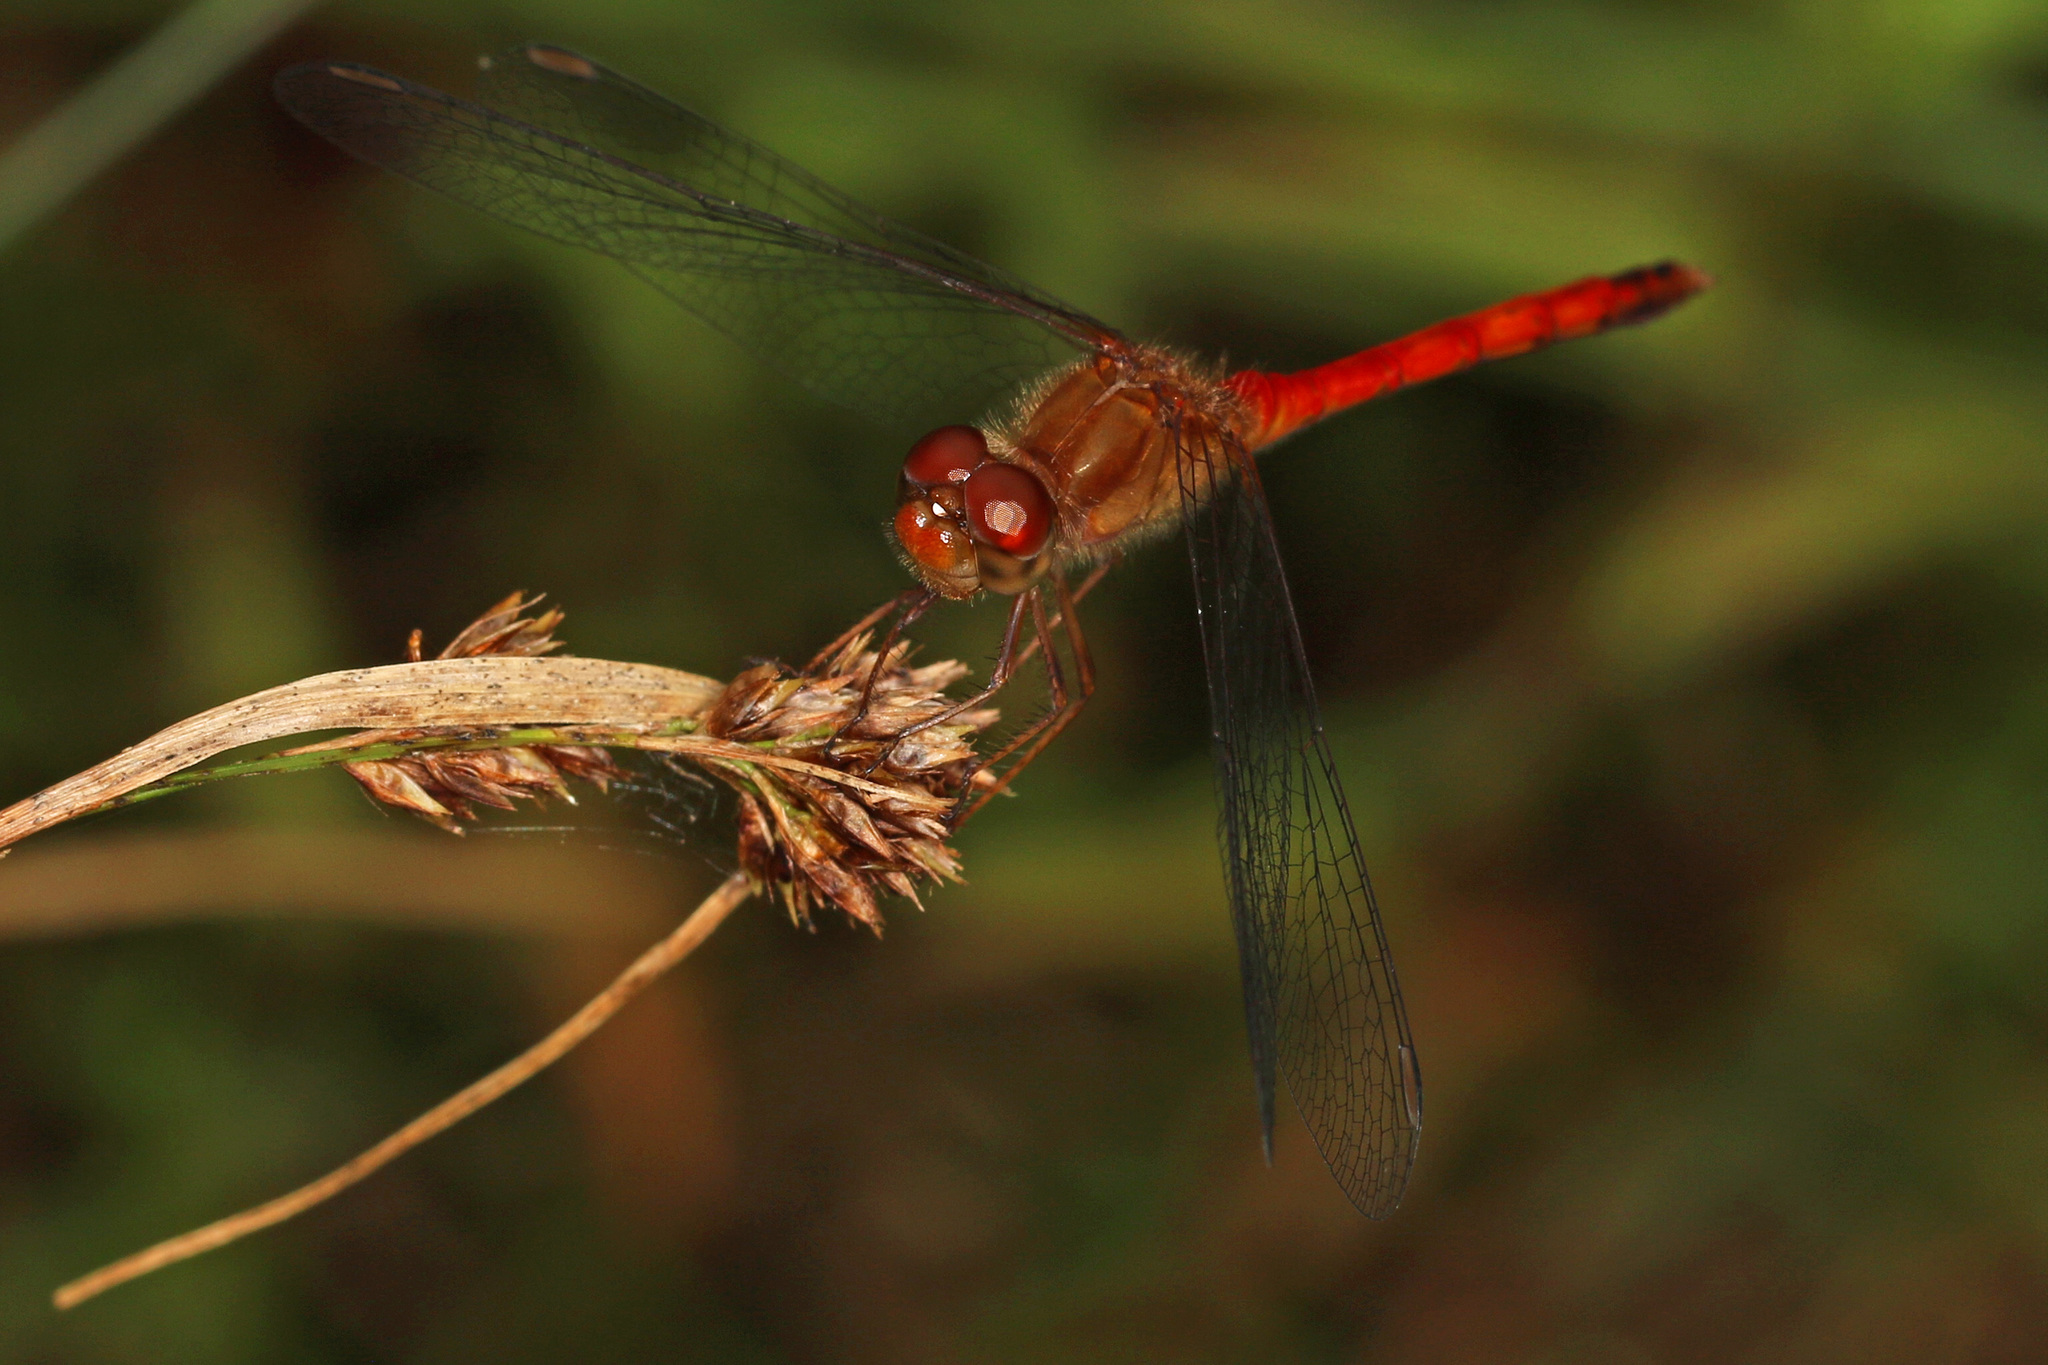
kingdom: Animalia
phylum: Arthropoda
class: Insecta
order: Odonata
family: Libellulidae
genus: Sympetrum
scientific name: Sympetrum vicinum
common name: Autumn meadowhawk
